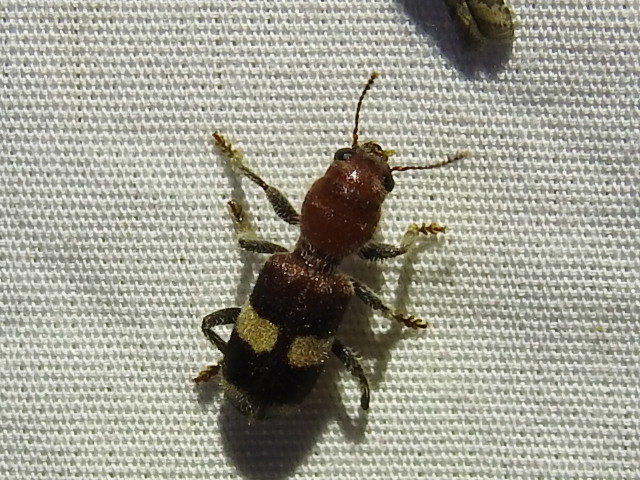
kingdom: Animalia
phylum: Arthropoda
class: Insecta
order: Coleoptera
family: Cleridae
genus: Enoclerus
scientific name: Enoclerus quadrisignatus
